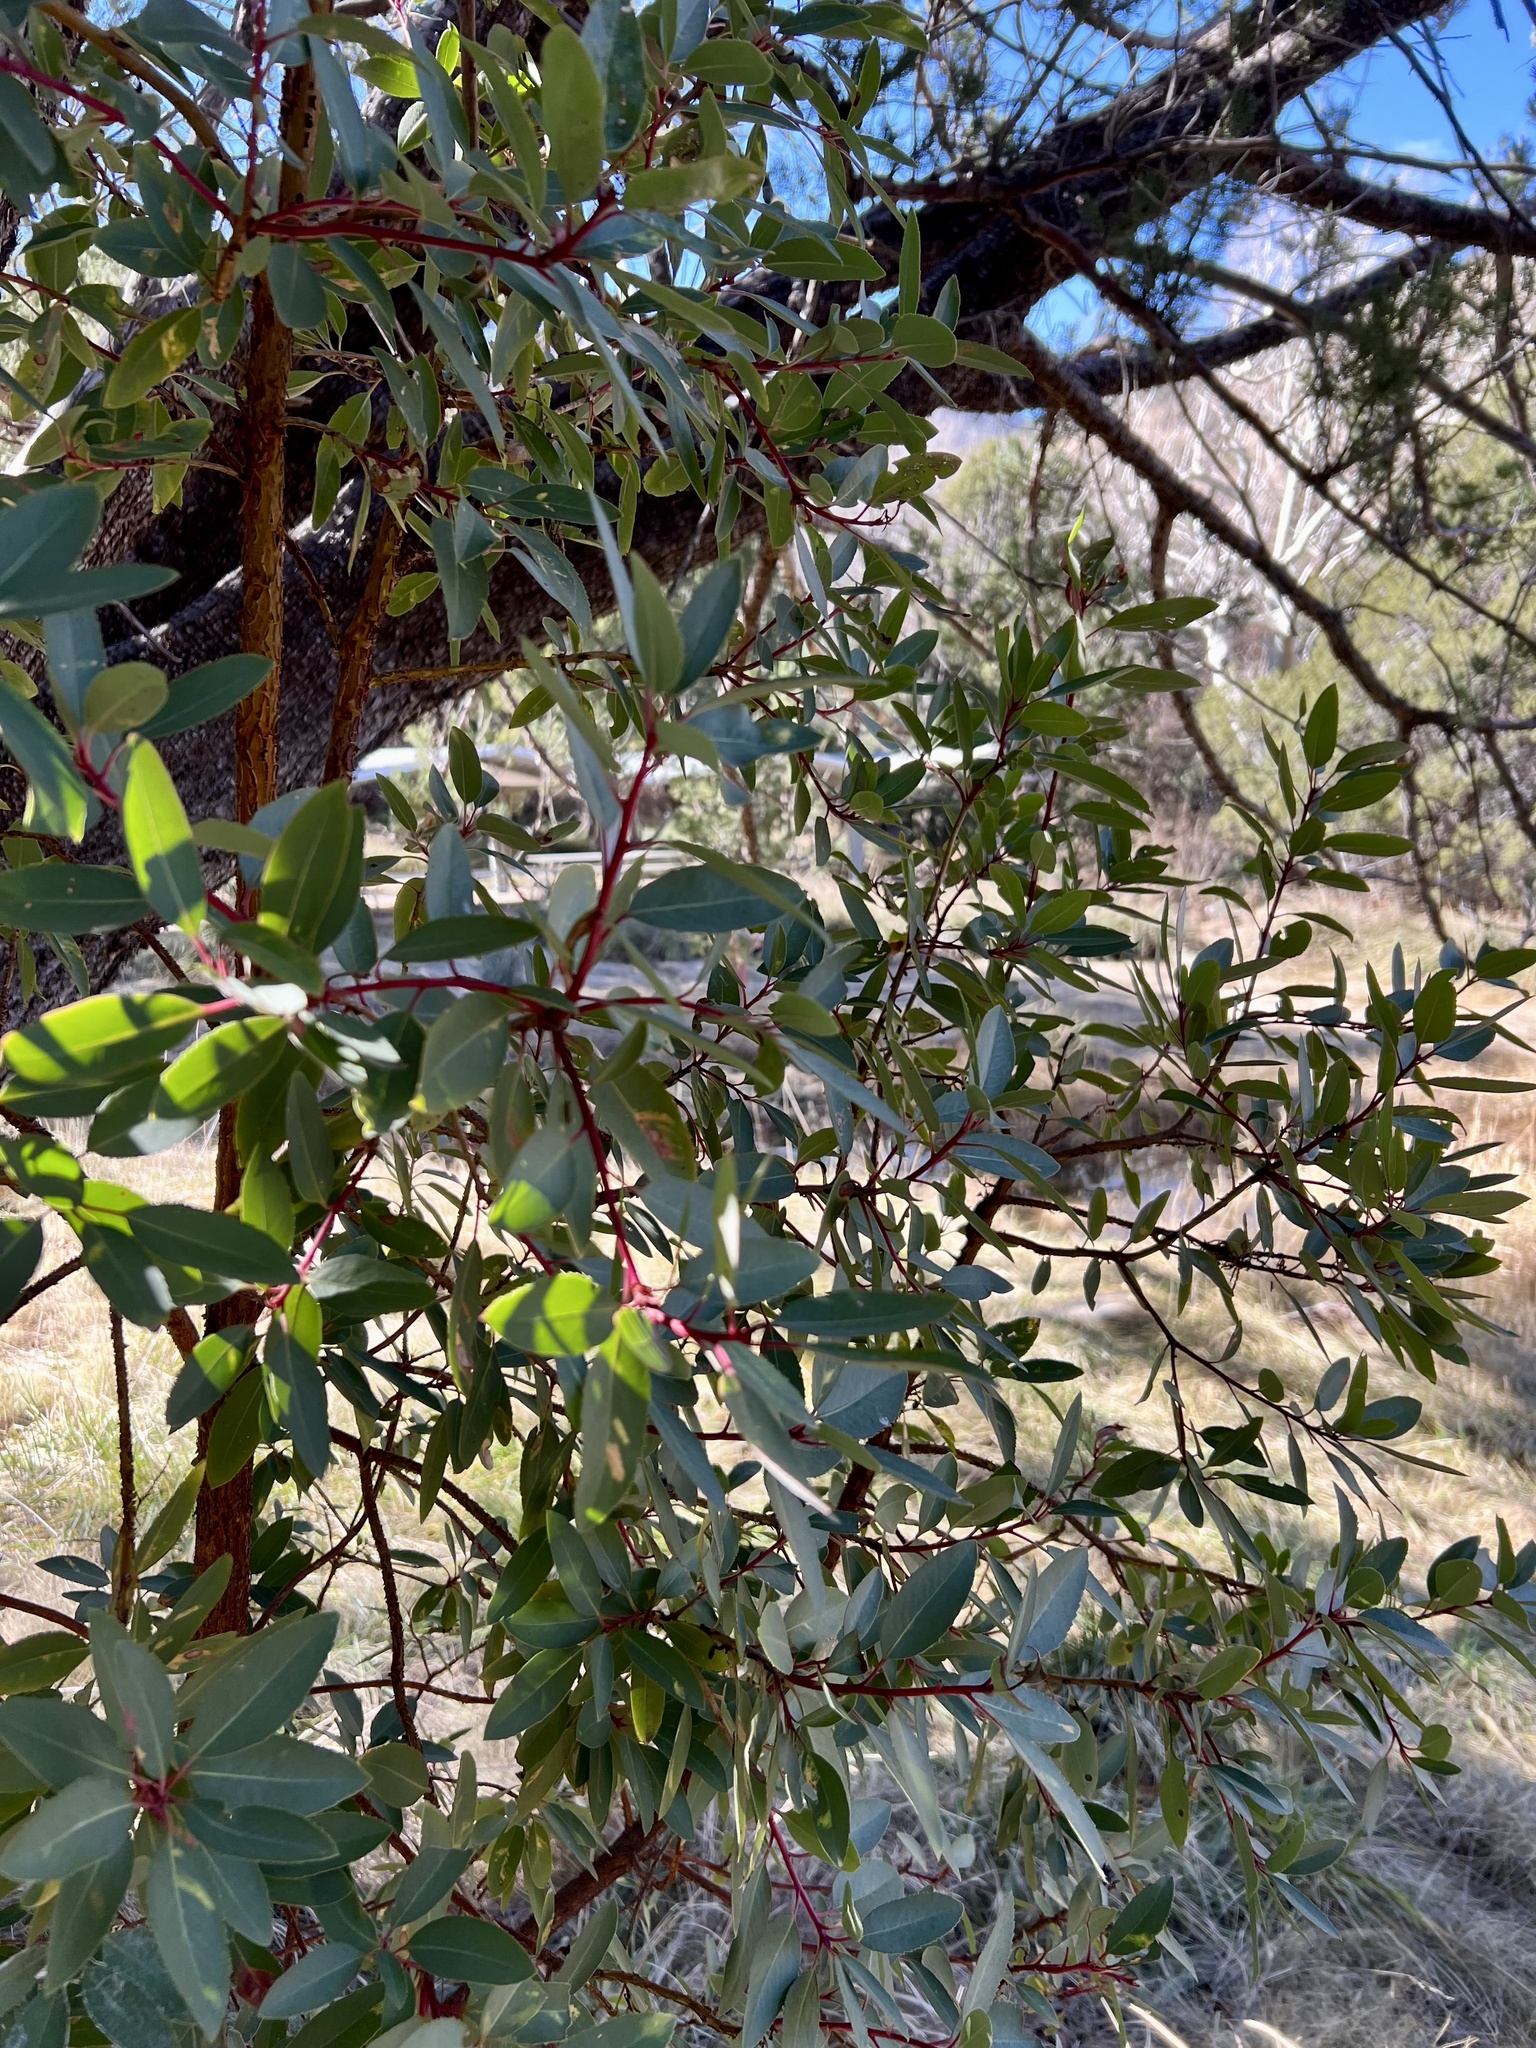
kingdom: Plantae
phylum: Tracheophyta
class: Magnoliopsida
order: Ericales
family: Ericaceae
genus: Arbutus
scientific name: Arbutus arizonica
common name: Arizona madrone
